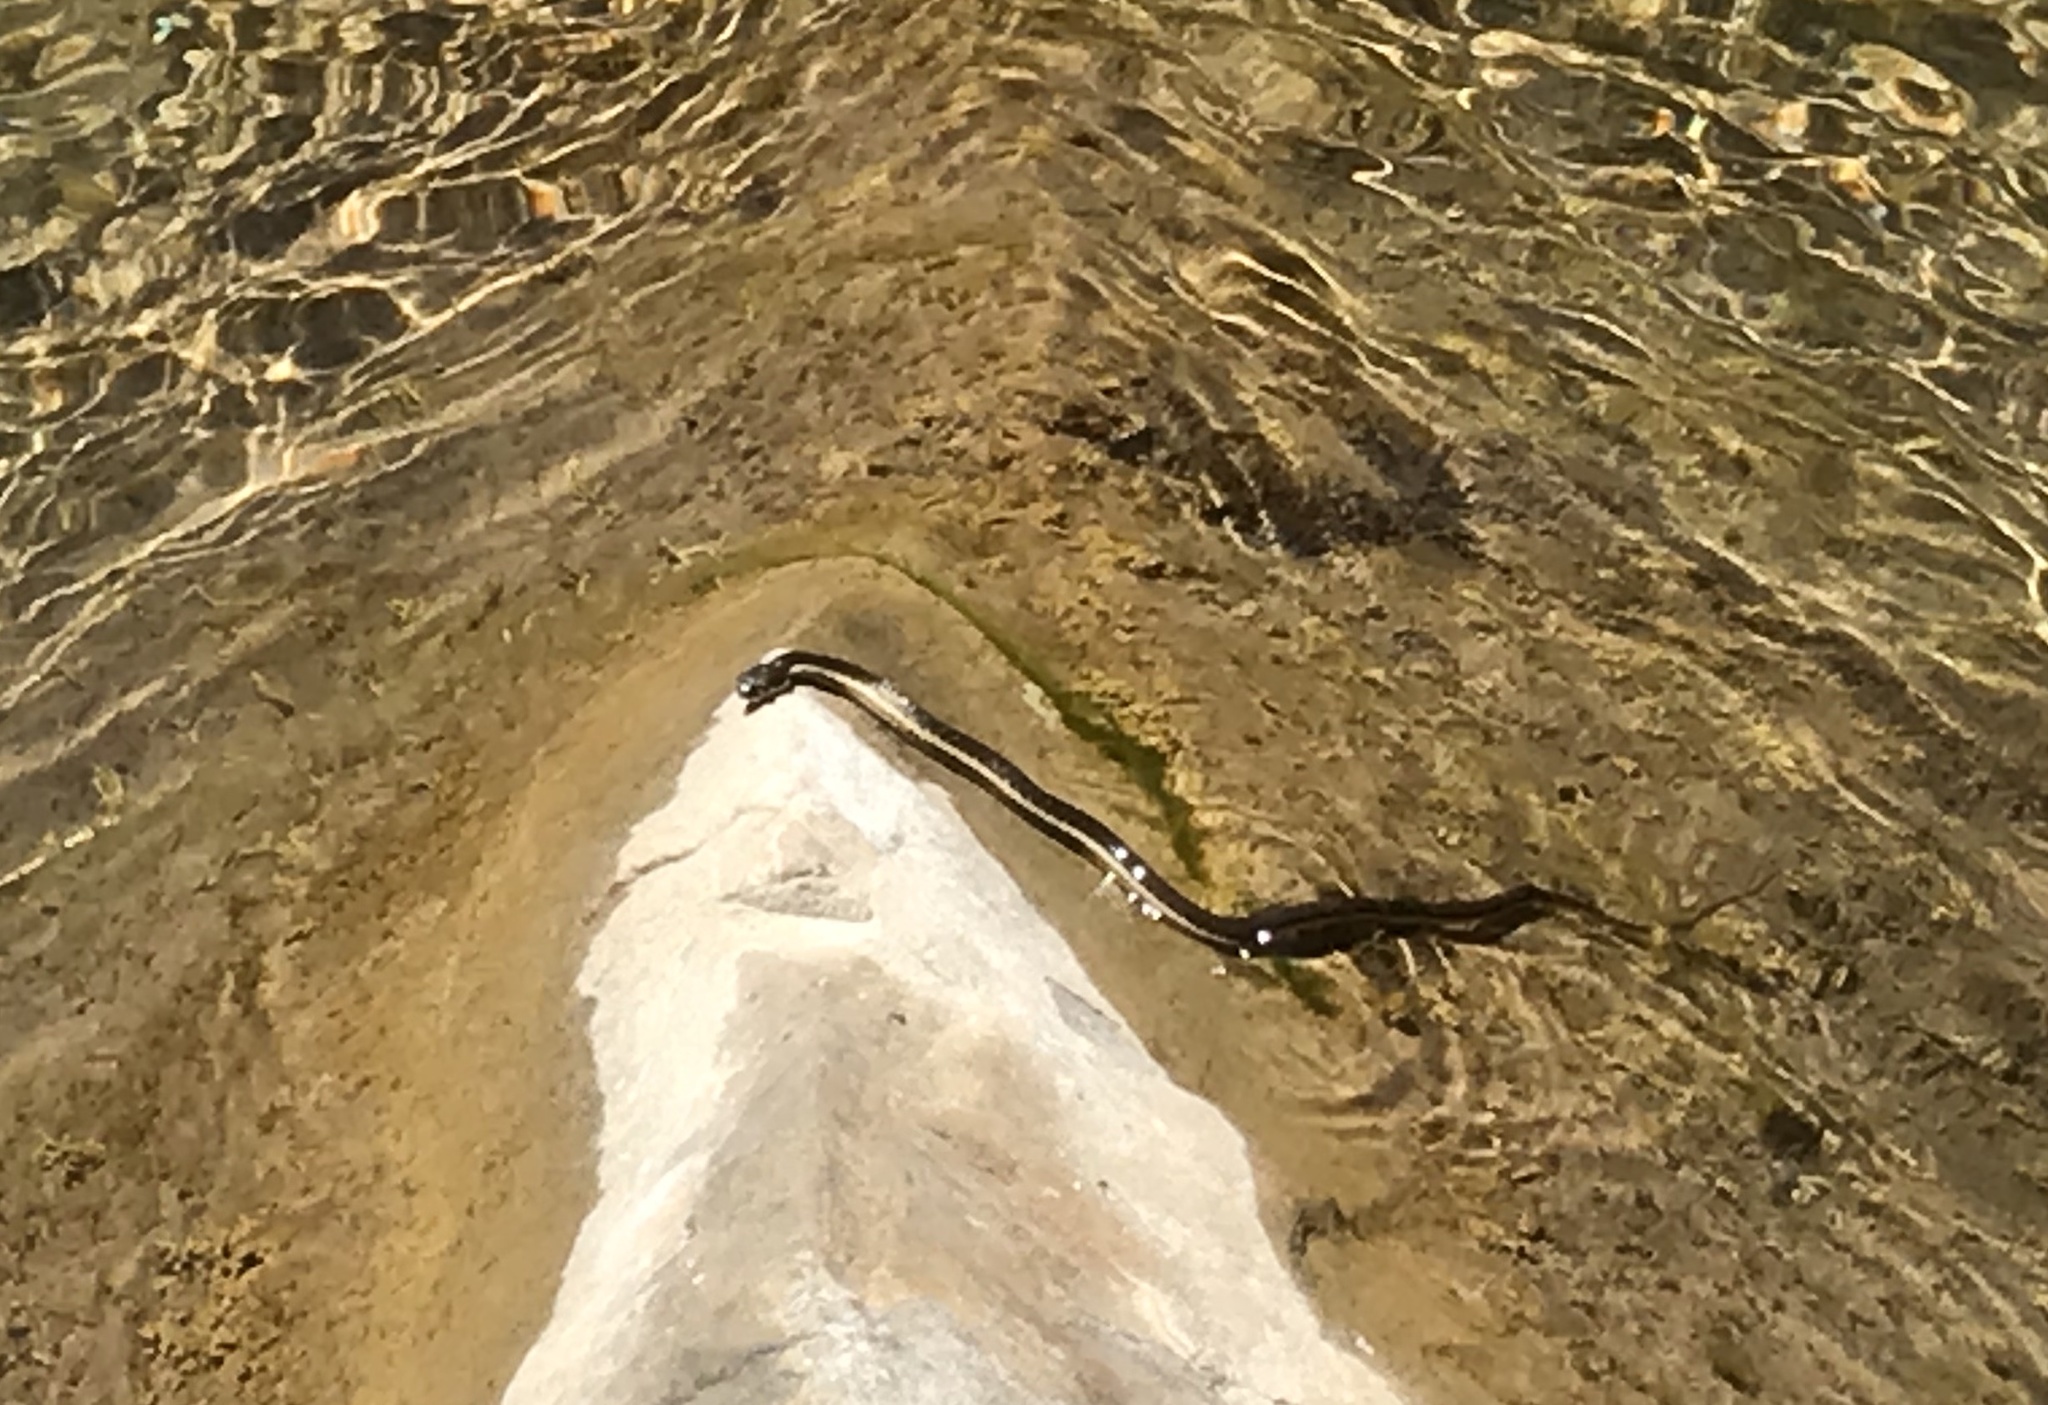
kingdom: Animalia
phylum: Chordata
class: Squamata
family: Colubridae
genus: Thamnophis
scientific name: Thamnophis hammondii
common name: Two-striped garter snake
